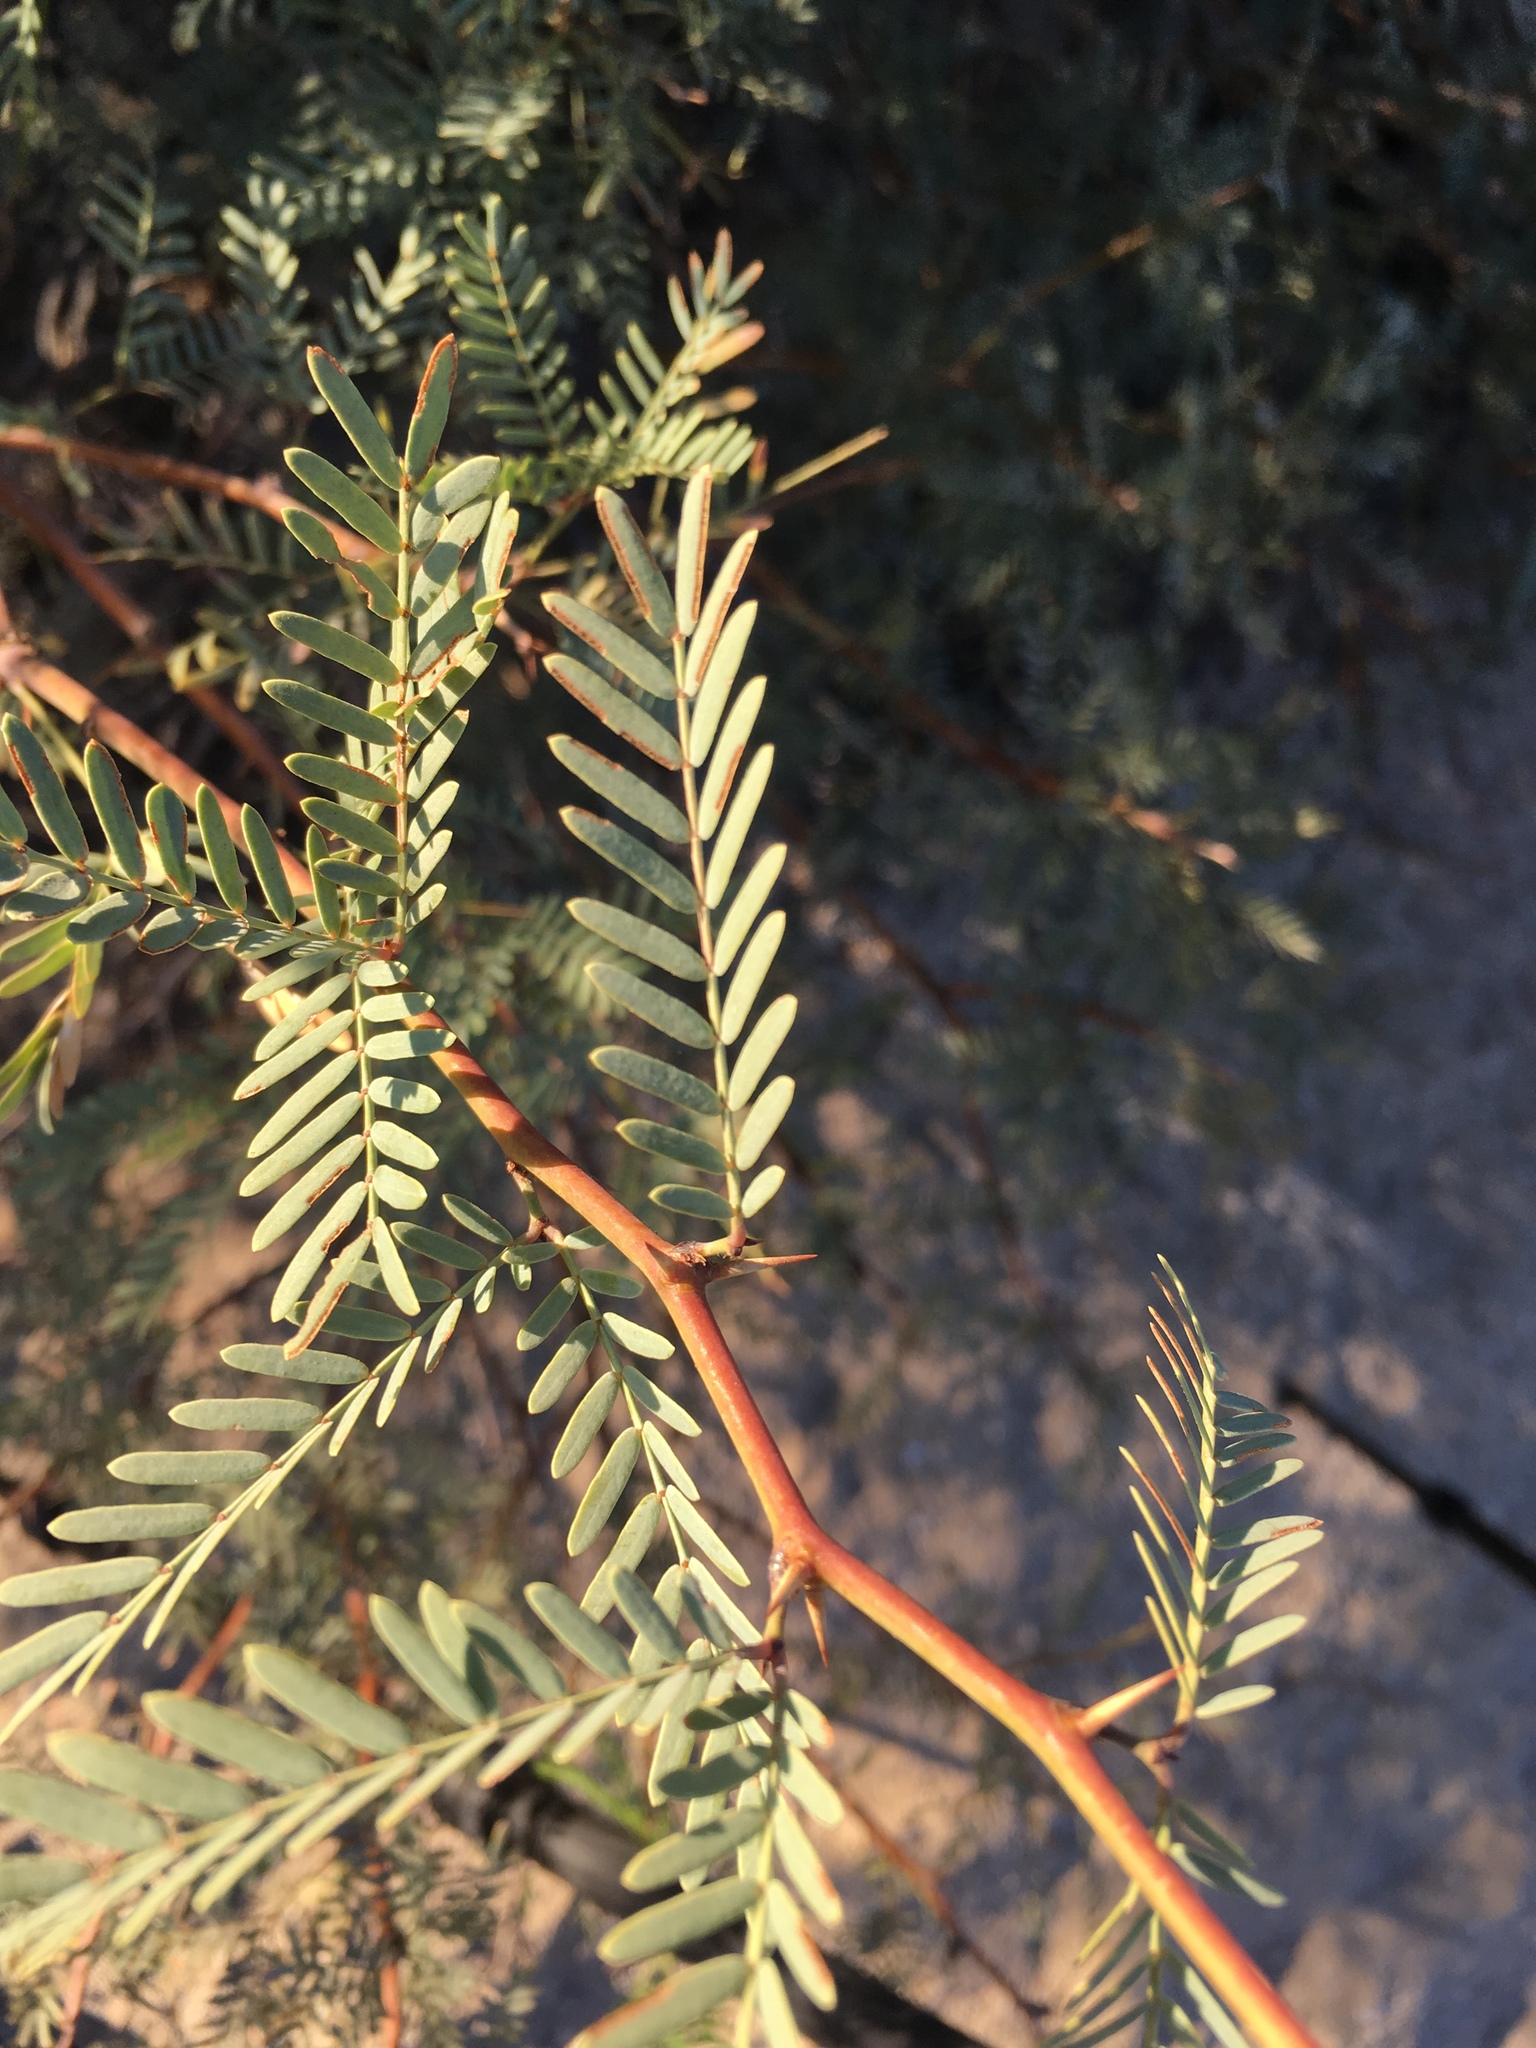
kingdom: Plantae
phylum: Tracheophyta
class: Magnoliopsida
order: Fabales
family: Fabaceae
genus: Prosopis
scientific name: Prosopis pubescens
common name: Screw-bean
